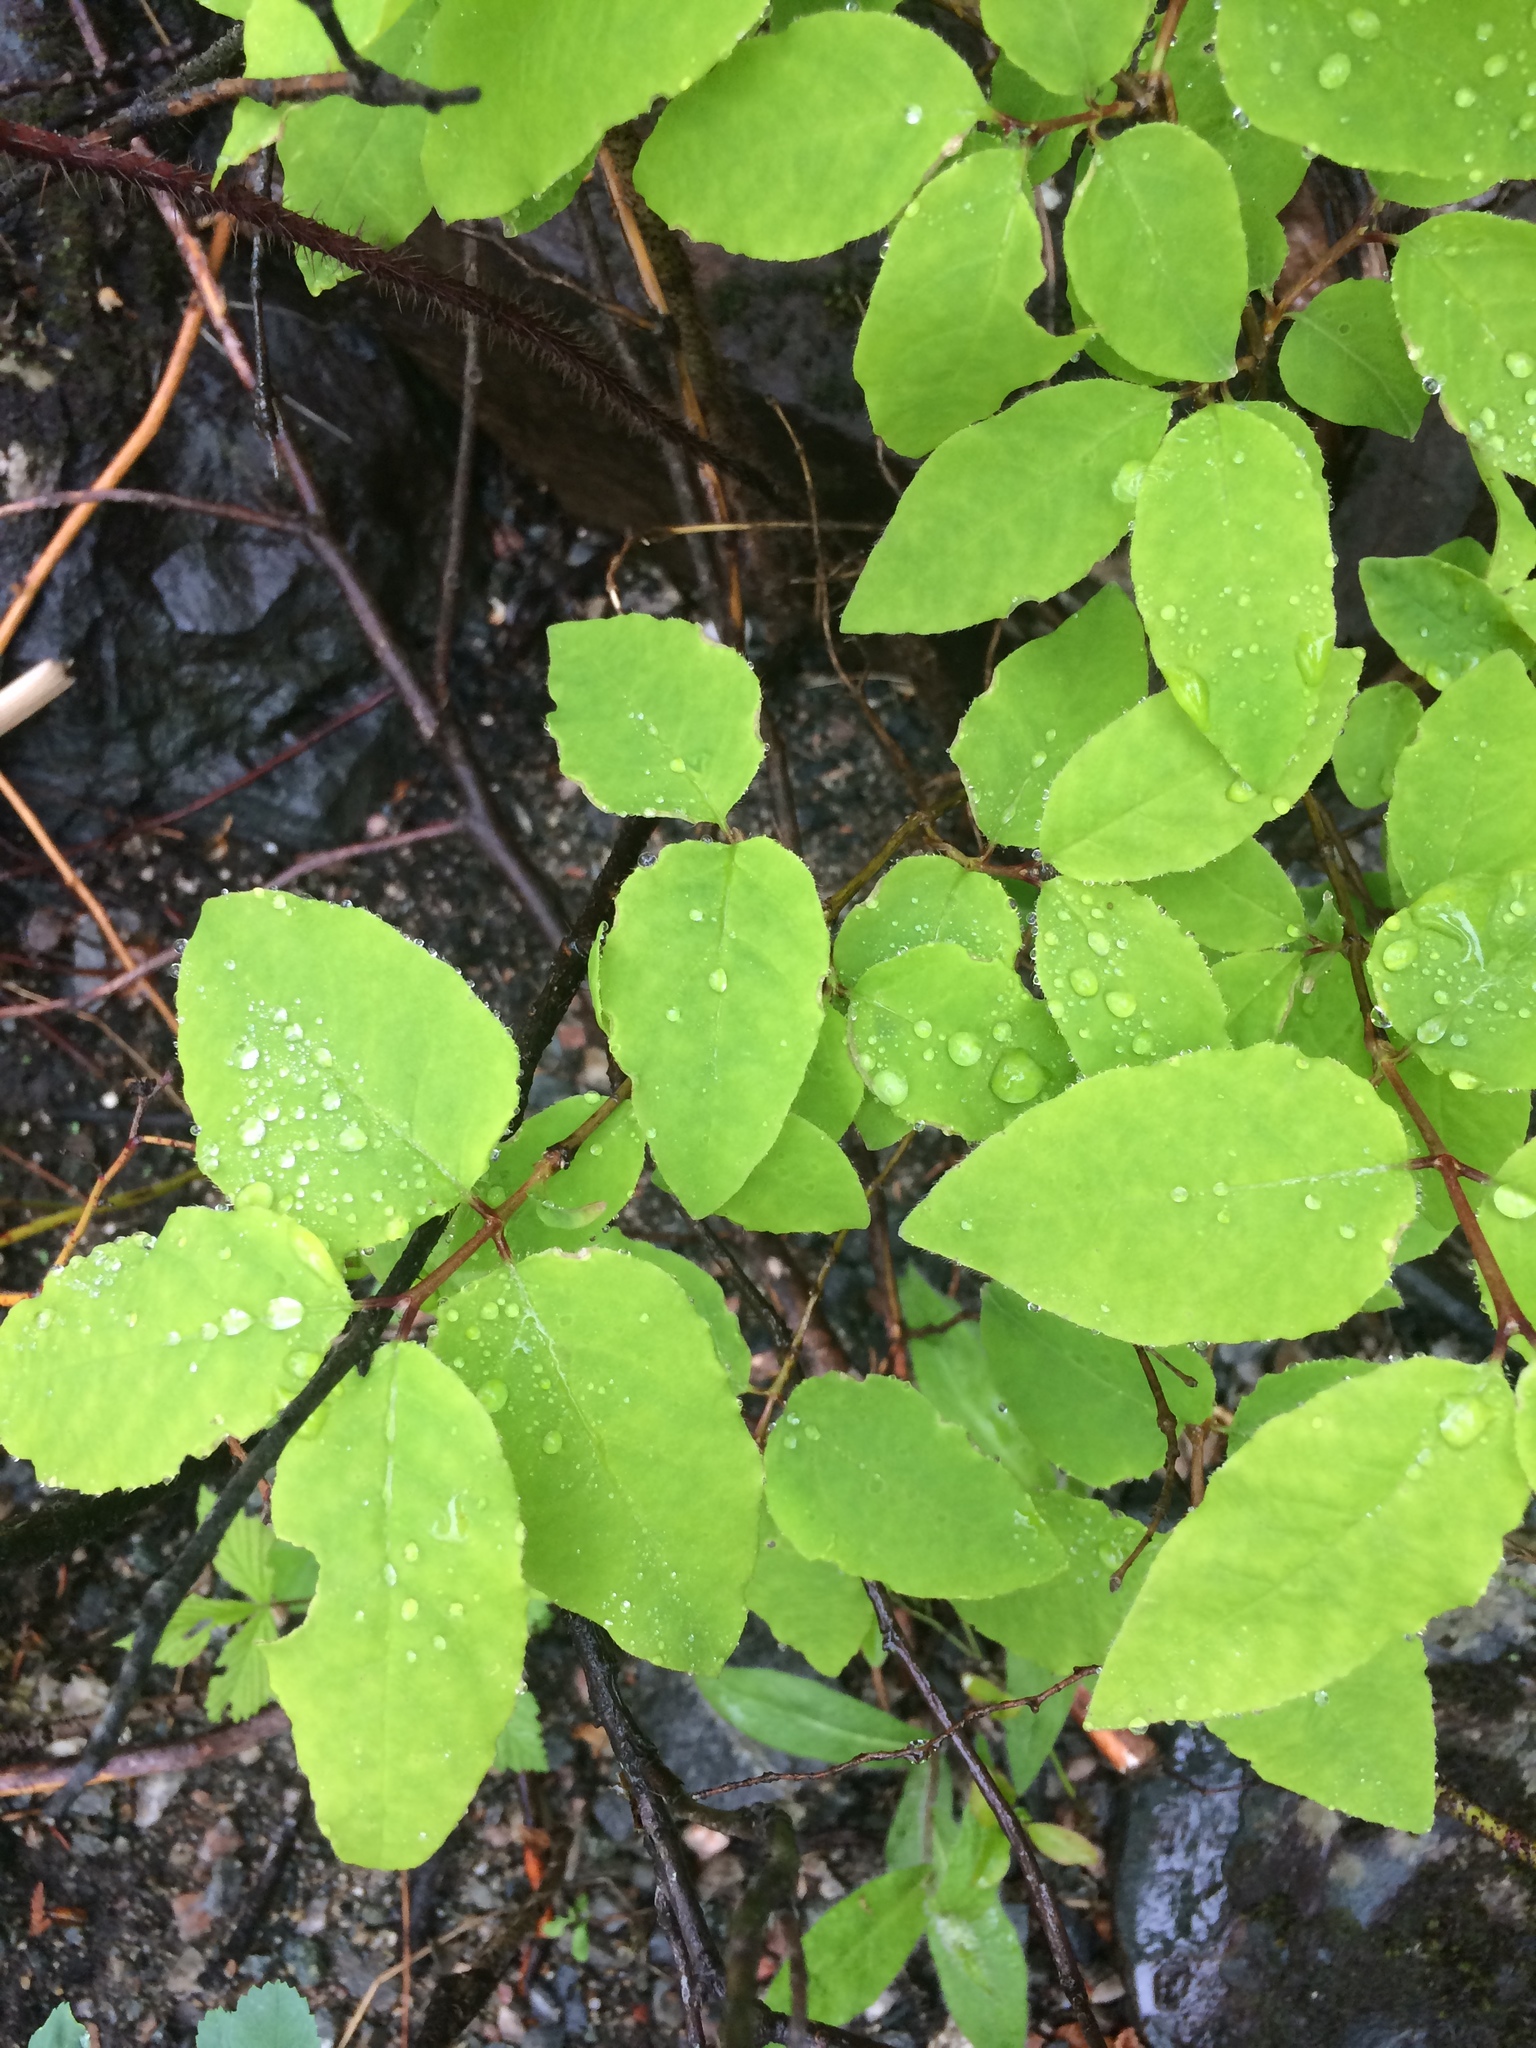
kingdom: Plantae
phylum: Tracheophyta
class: Magnoliopsida
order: Dipsacales
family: Caprifoliaceae
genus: Lonicera
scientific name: Lonicera canadensis
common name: American fly-honeysuckle
